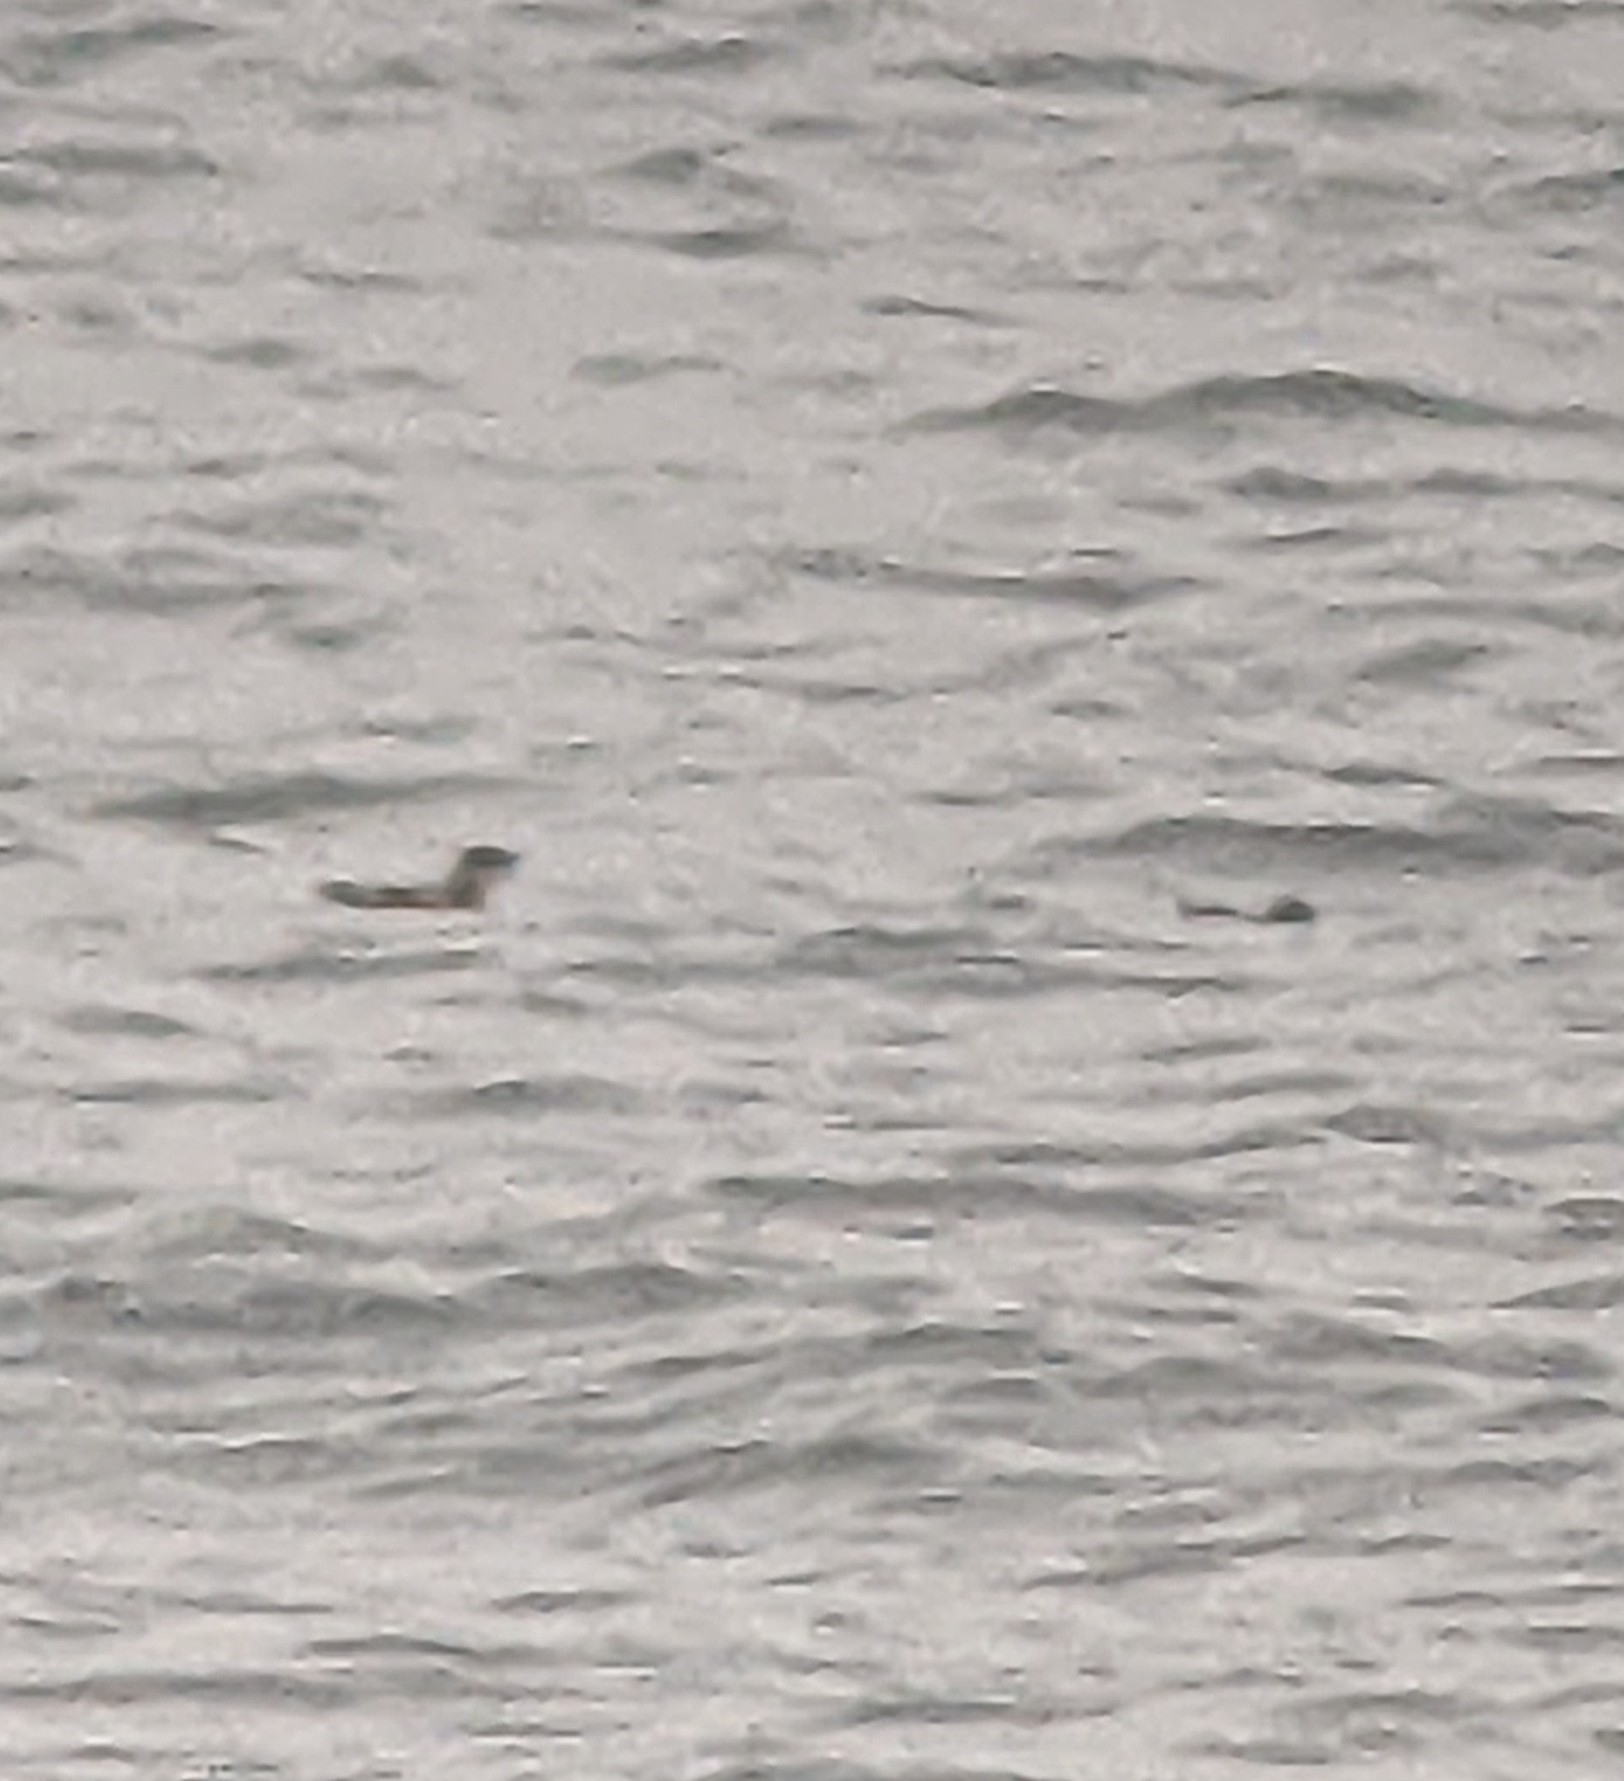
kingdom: Animalia
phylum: Chordata
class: Aves
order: Charadriiformes
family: Alcidae
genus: Brachyramphus
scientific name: Brachyramphus marmoratus
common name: Marbled murrelet
